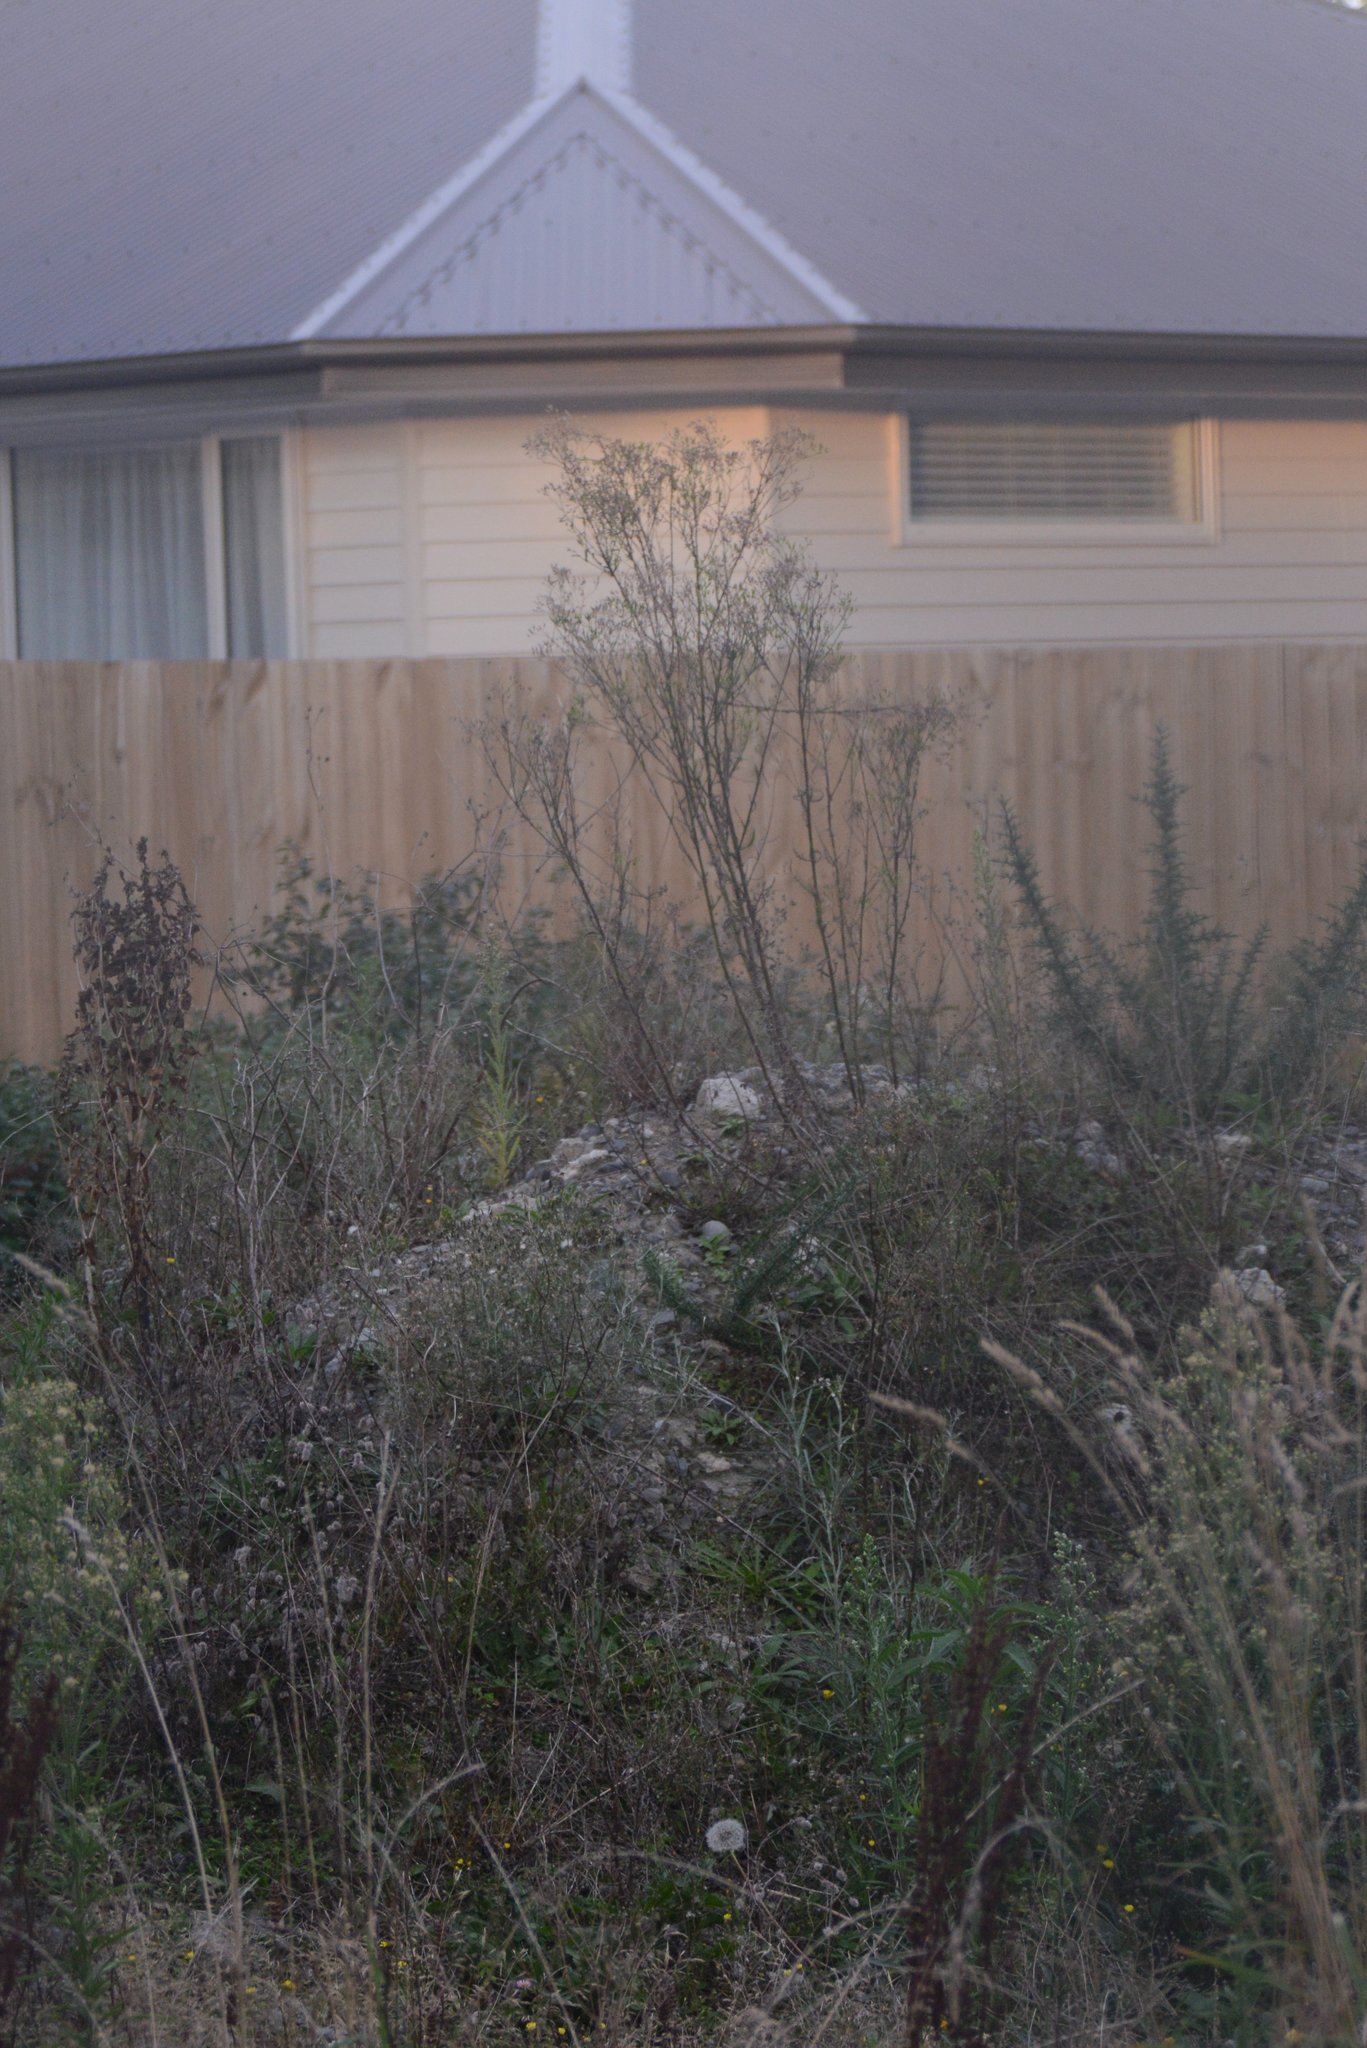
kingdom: Plantae
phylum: Tracheophyta
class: Magnoliopsida
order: Asterales
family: Asteraceae
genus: Senecio
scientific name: Senecio hispidulus
